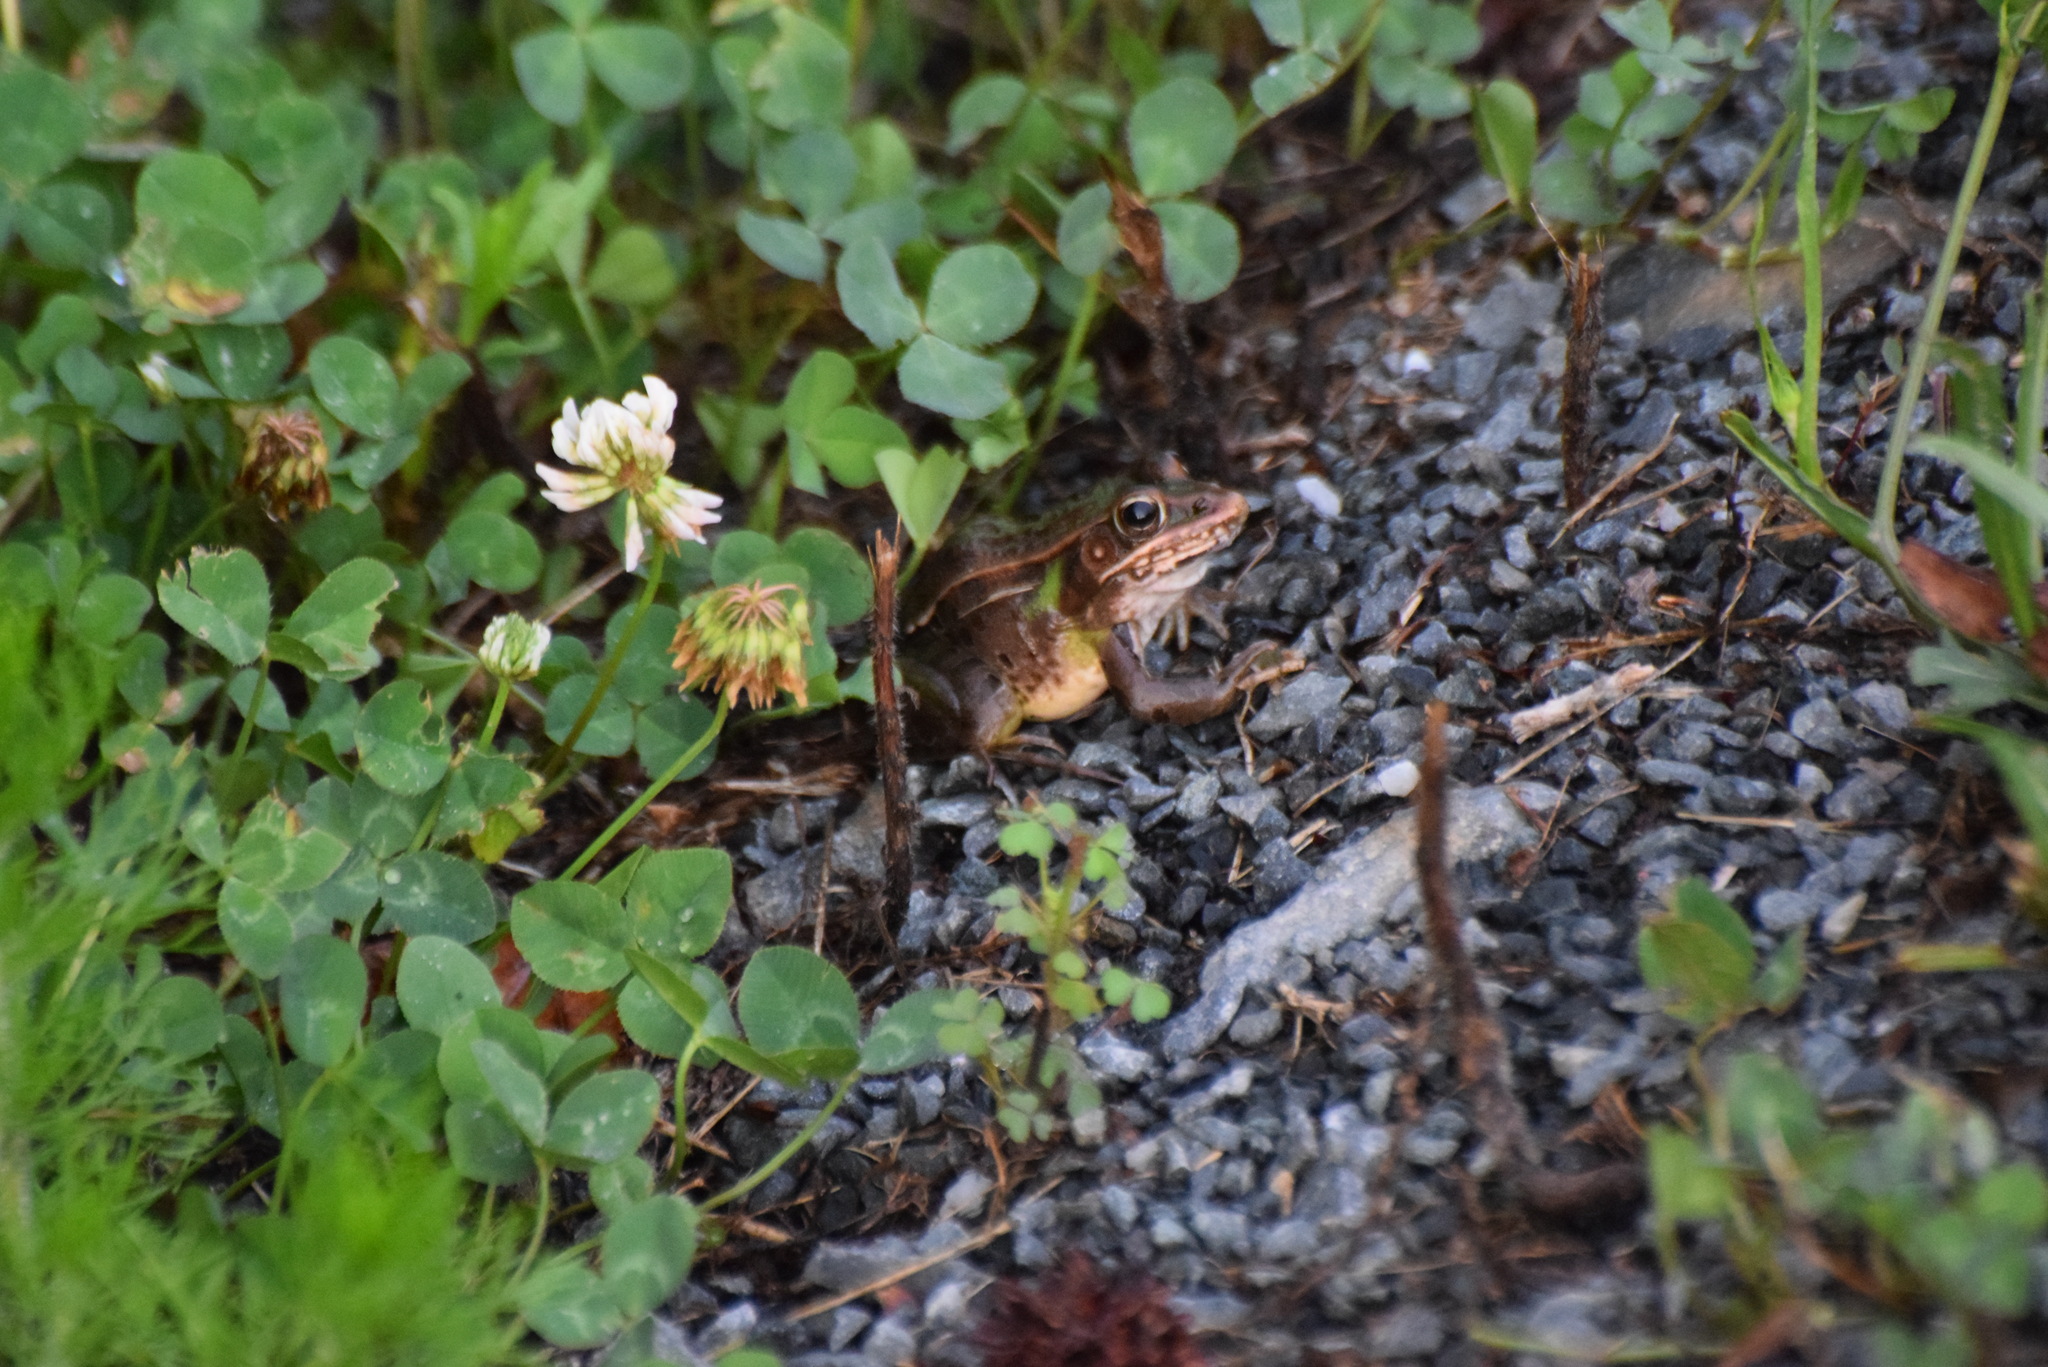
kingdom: Animalia
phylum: Chordata
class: Amphibia
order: Anura
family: Ranidae
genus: Lithobates
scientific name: Lithobates sphenocephalus
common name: Southern leopard frog
